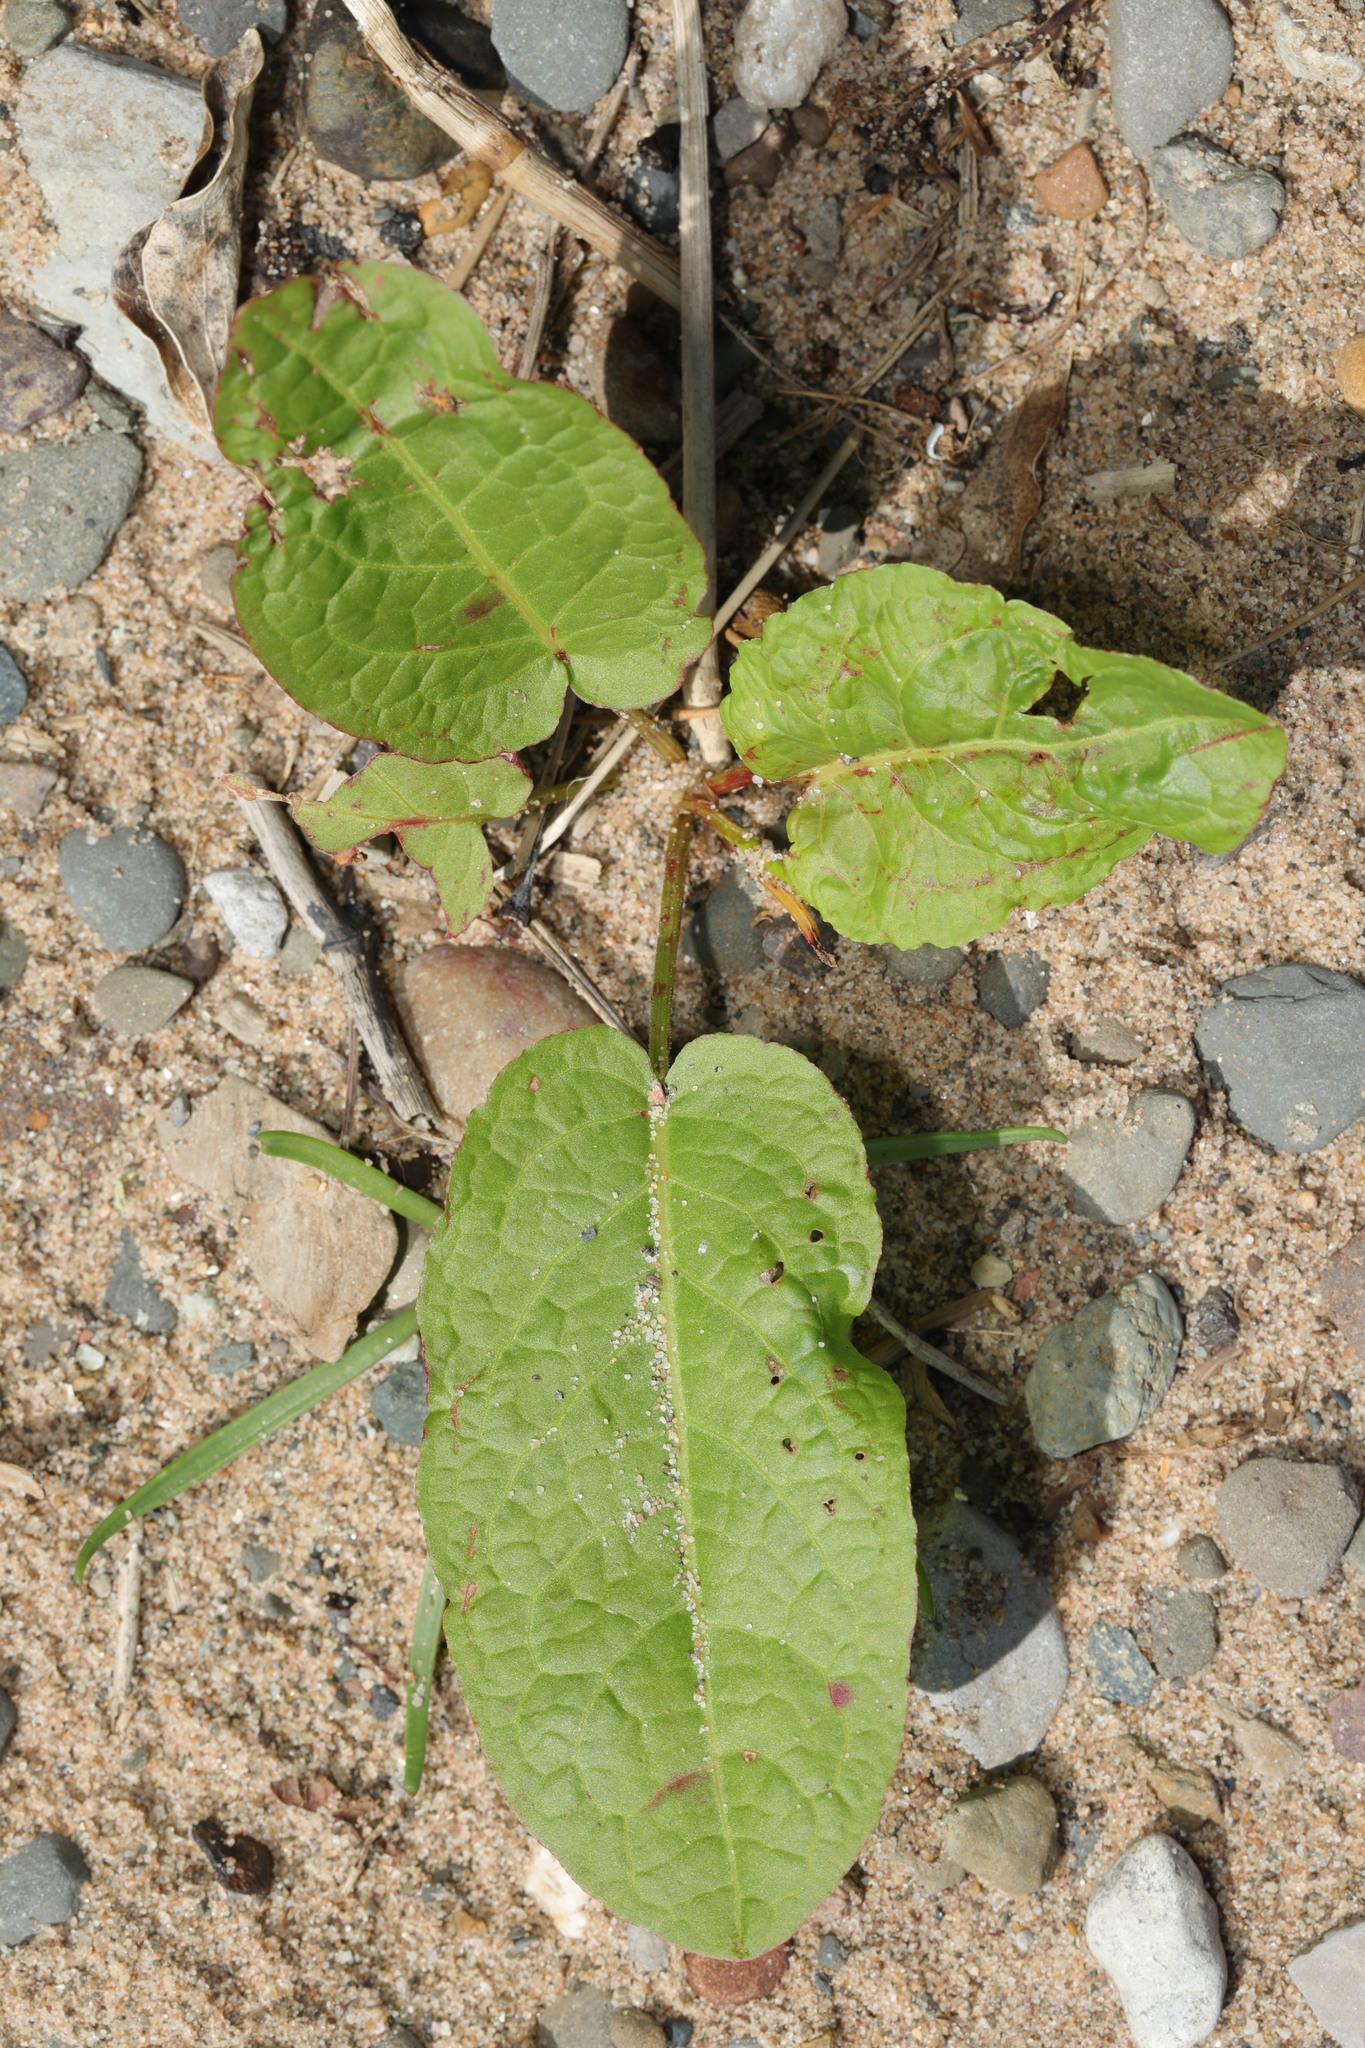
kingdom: Plantae
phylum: Tracheophyta
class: Magnoliopsida
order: Caryophyllales
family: Polygonaceae
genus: Rumex
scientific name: Rumex obtusifolius
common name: Bitter dock
